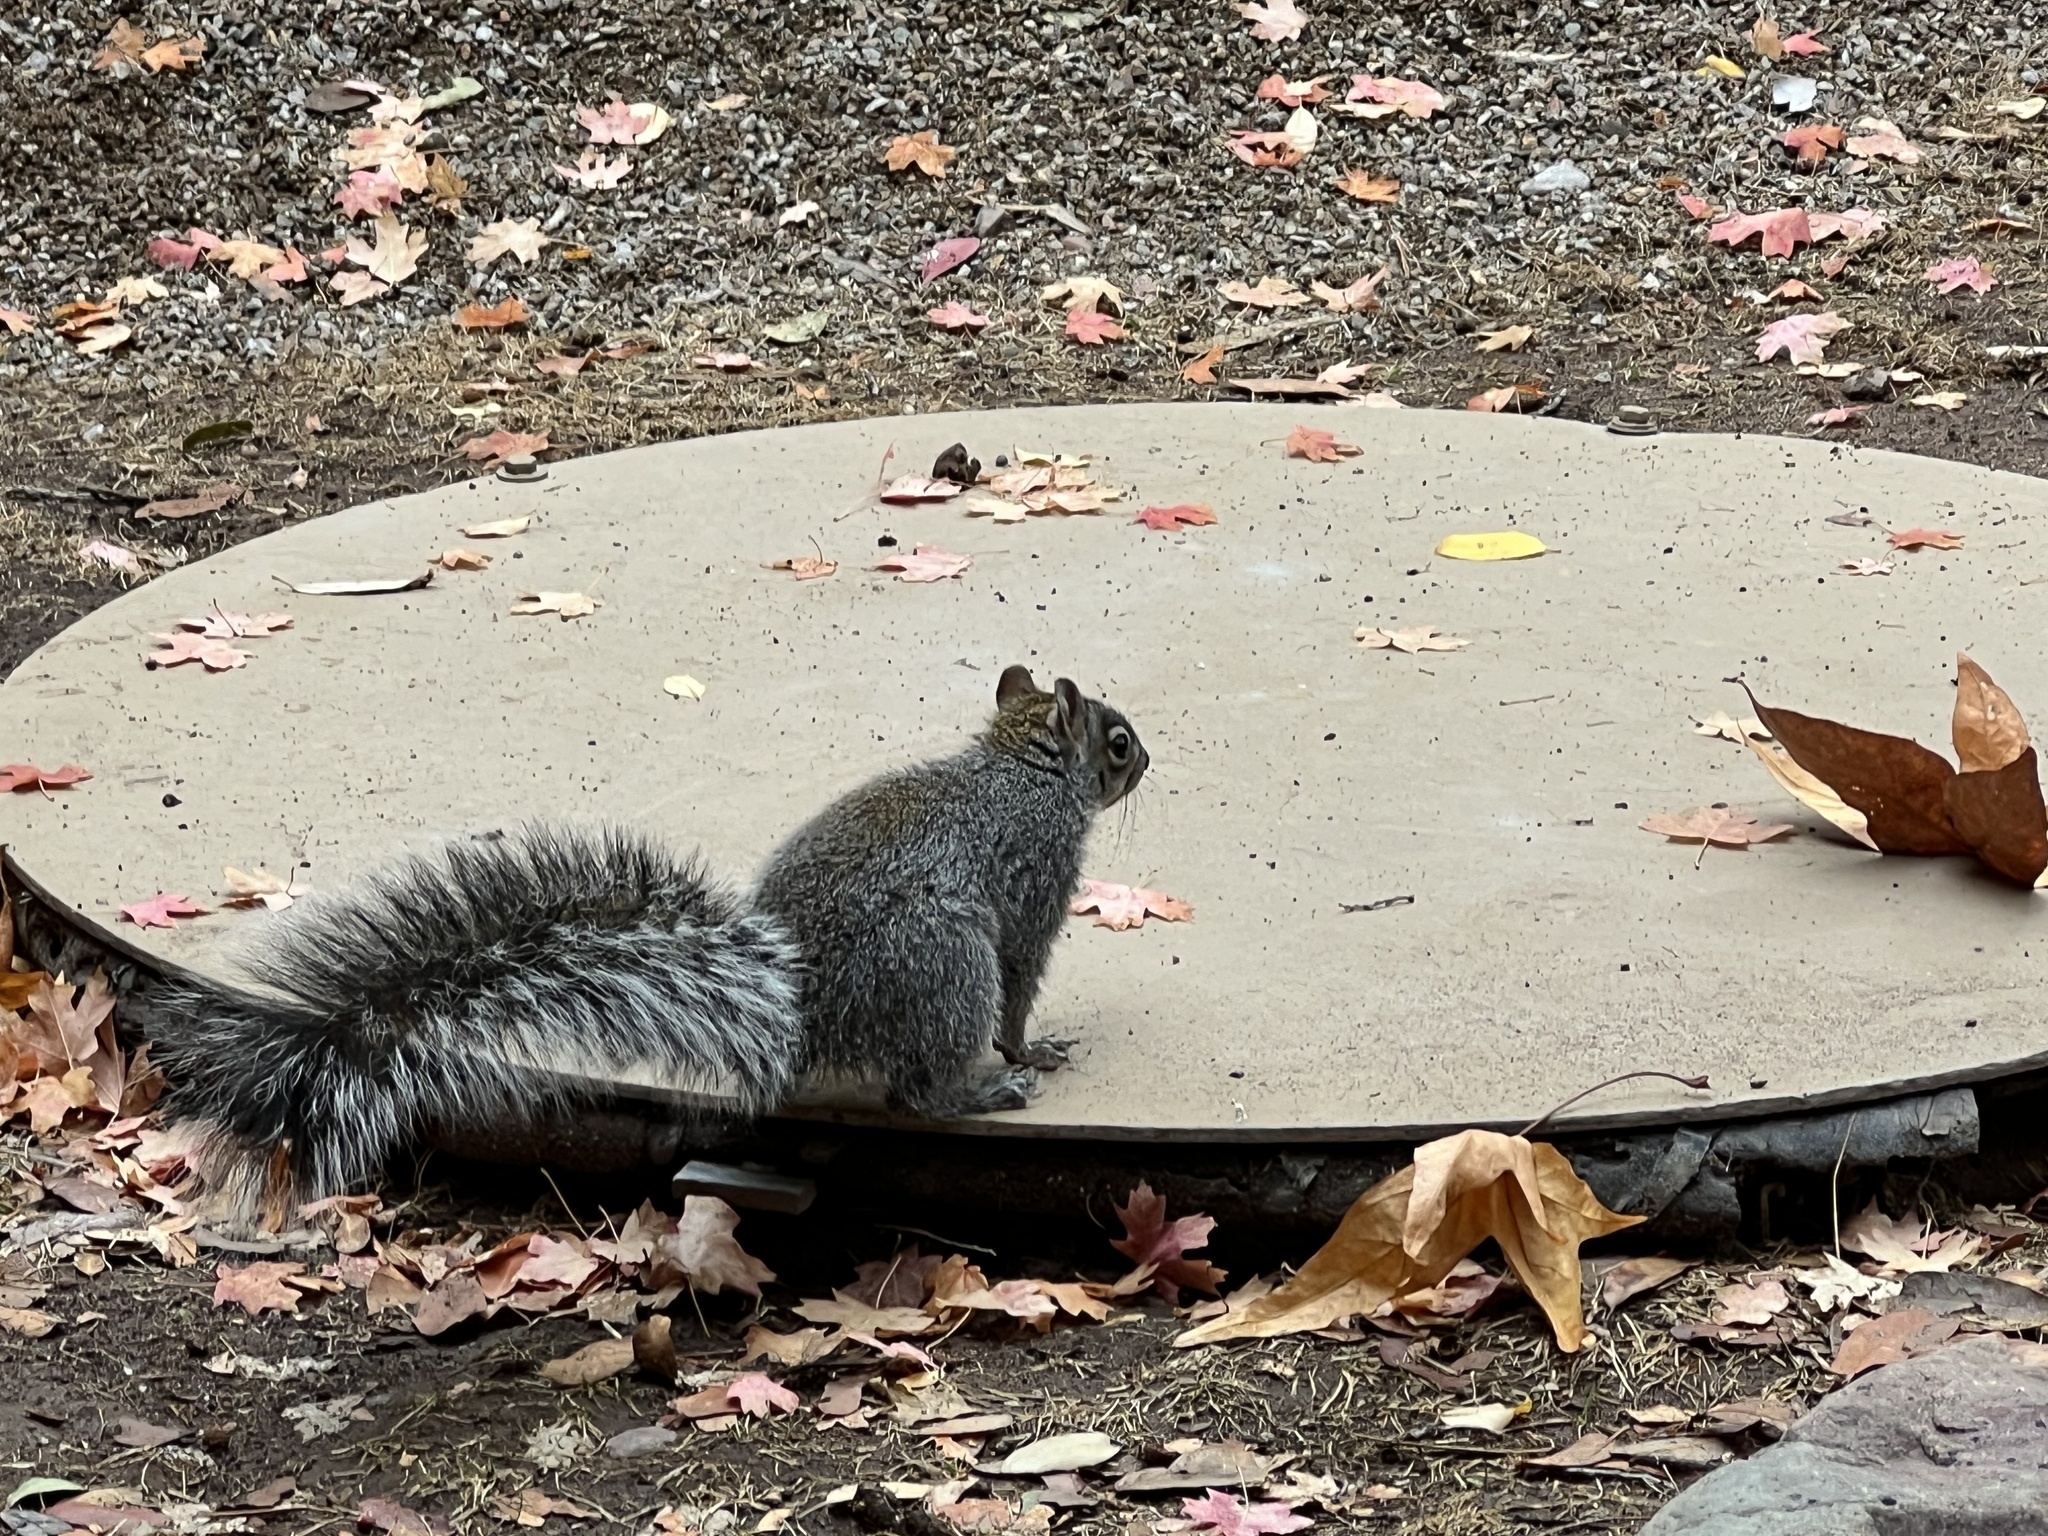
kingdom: Animalia
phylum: Chordata
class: Mammalia
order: Rodentia
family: Sciuridae
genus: Sciurus
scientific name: Sciurus arizonensis
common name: Arizona gray squirrel
